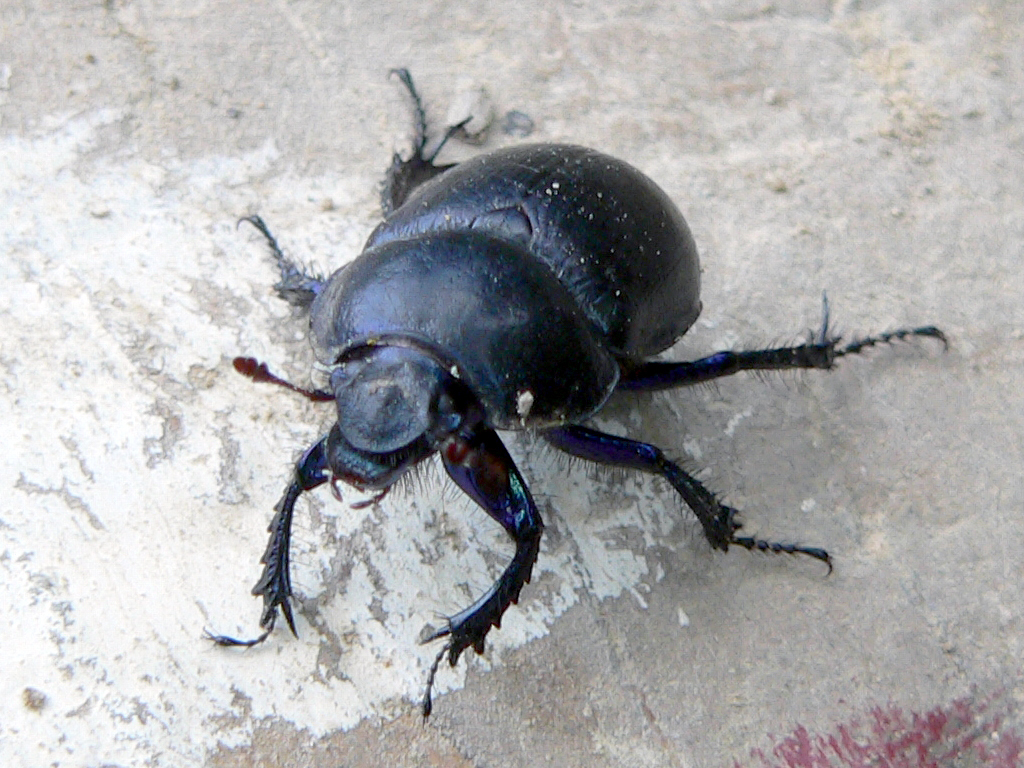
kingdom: Animalia
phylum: Arthropoda
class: Insecta
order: Coleoptera
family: Geotrupidae
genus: Anoplotrupes
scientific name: Anoplotrupes stercorosus
